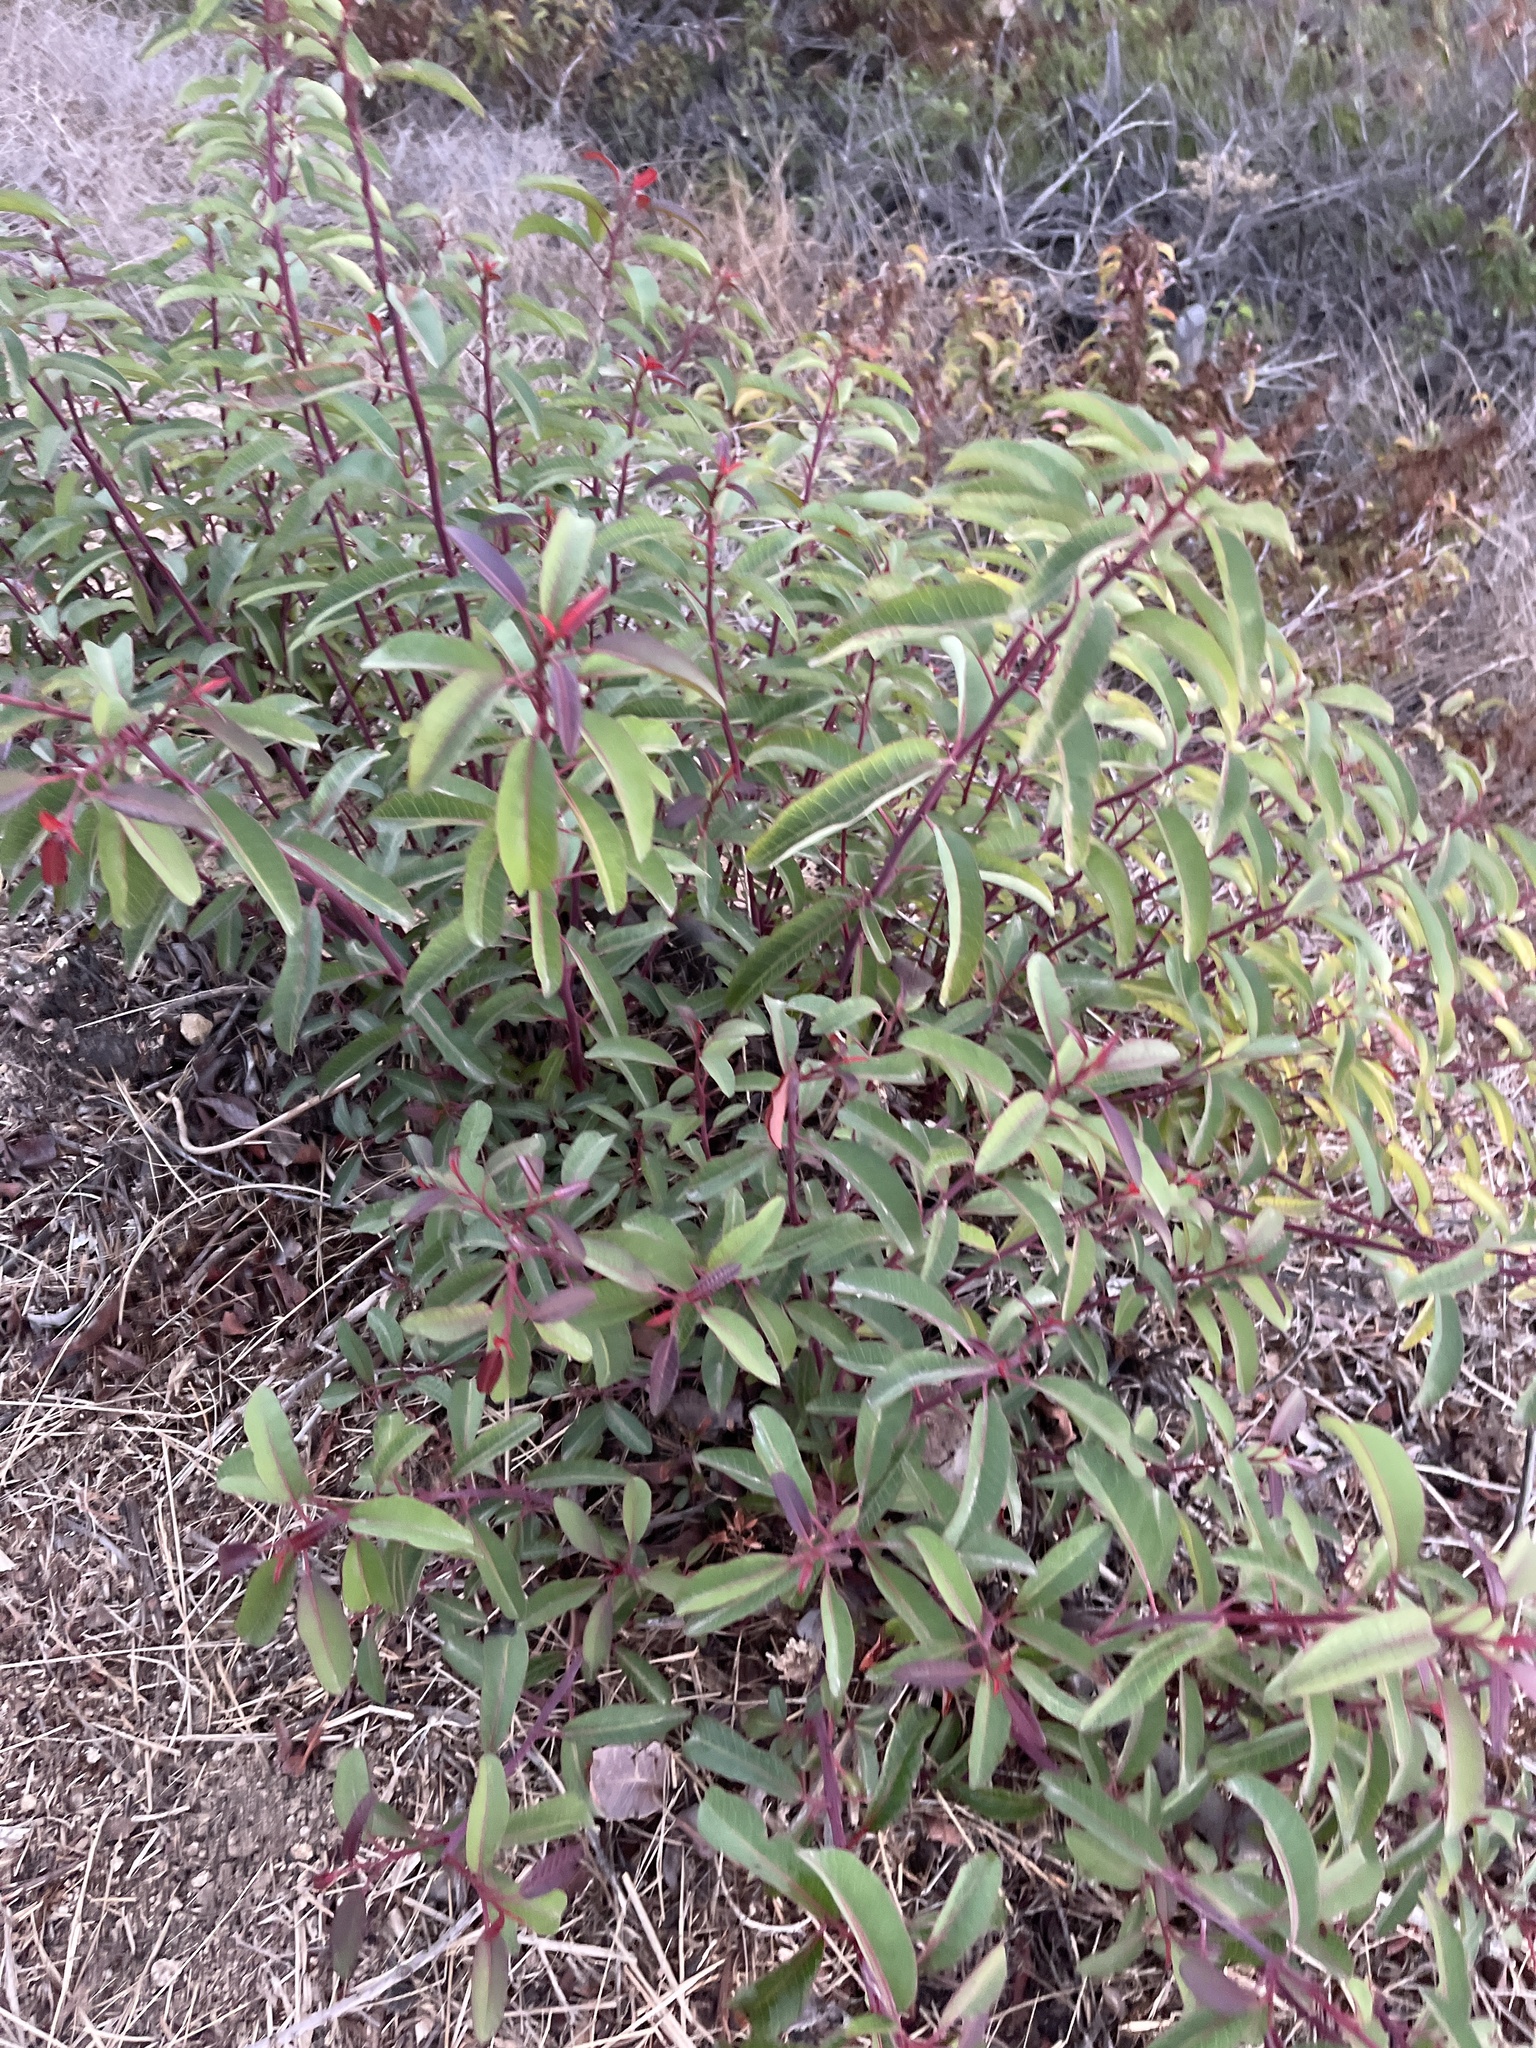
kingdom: Plantae
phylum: Tracheophyta
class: Magnoliopsida
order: Sapindales
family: Anacardiaceae
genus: Malosma
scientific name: Malosma laurina
